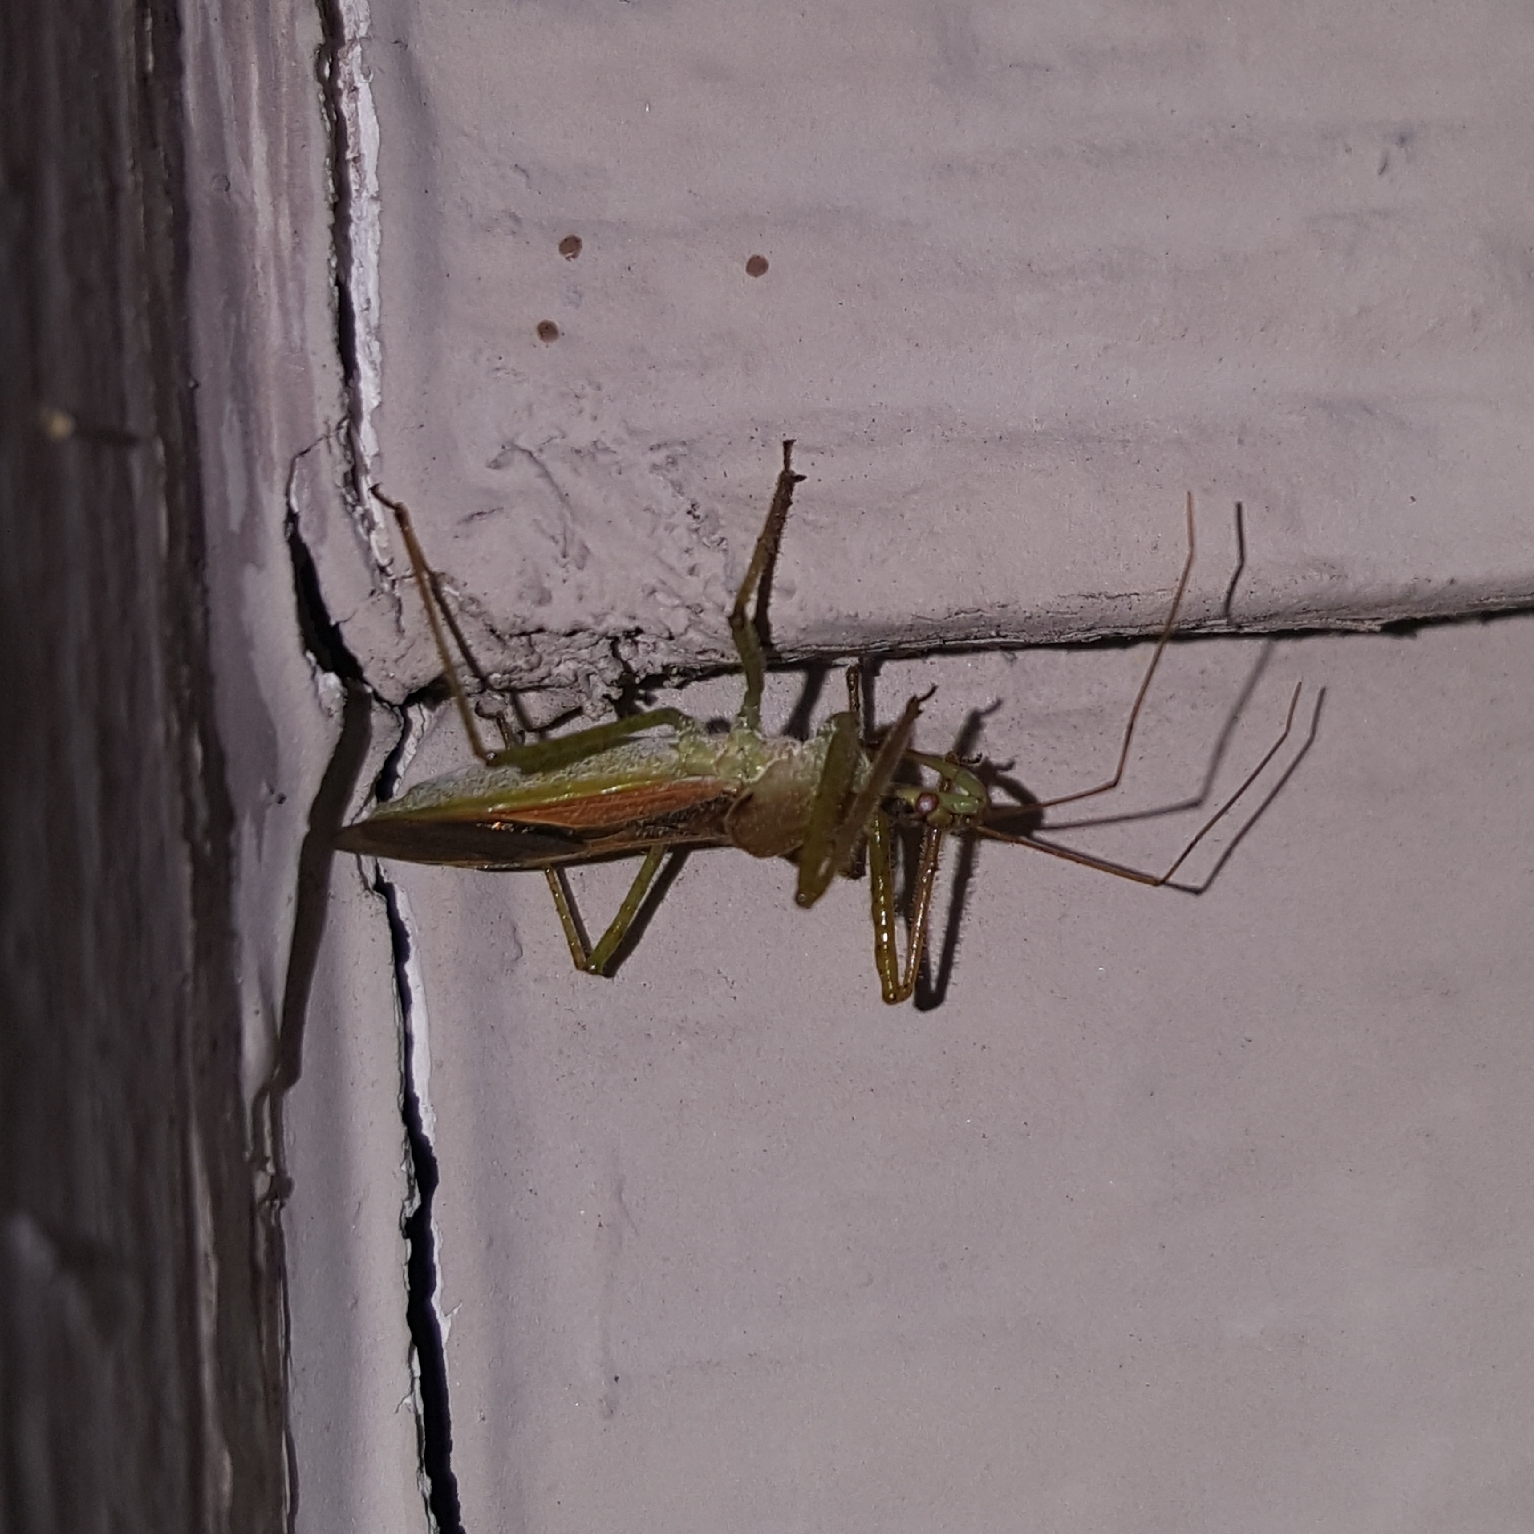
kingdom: Animalia
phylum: Arthropoda
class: Insecta
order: Hemiptera
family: Reduviidae
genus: Zelus
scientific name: Zelus renardii
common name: Assassin bug
